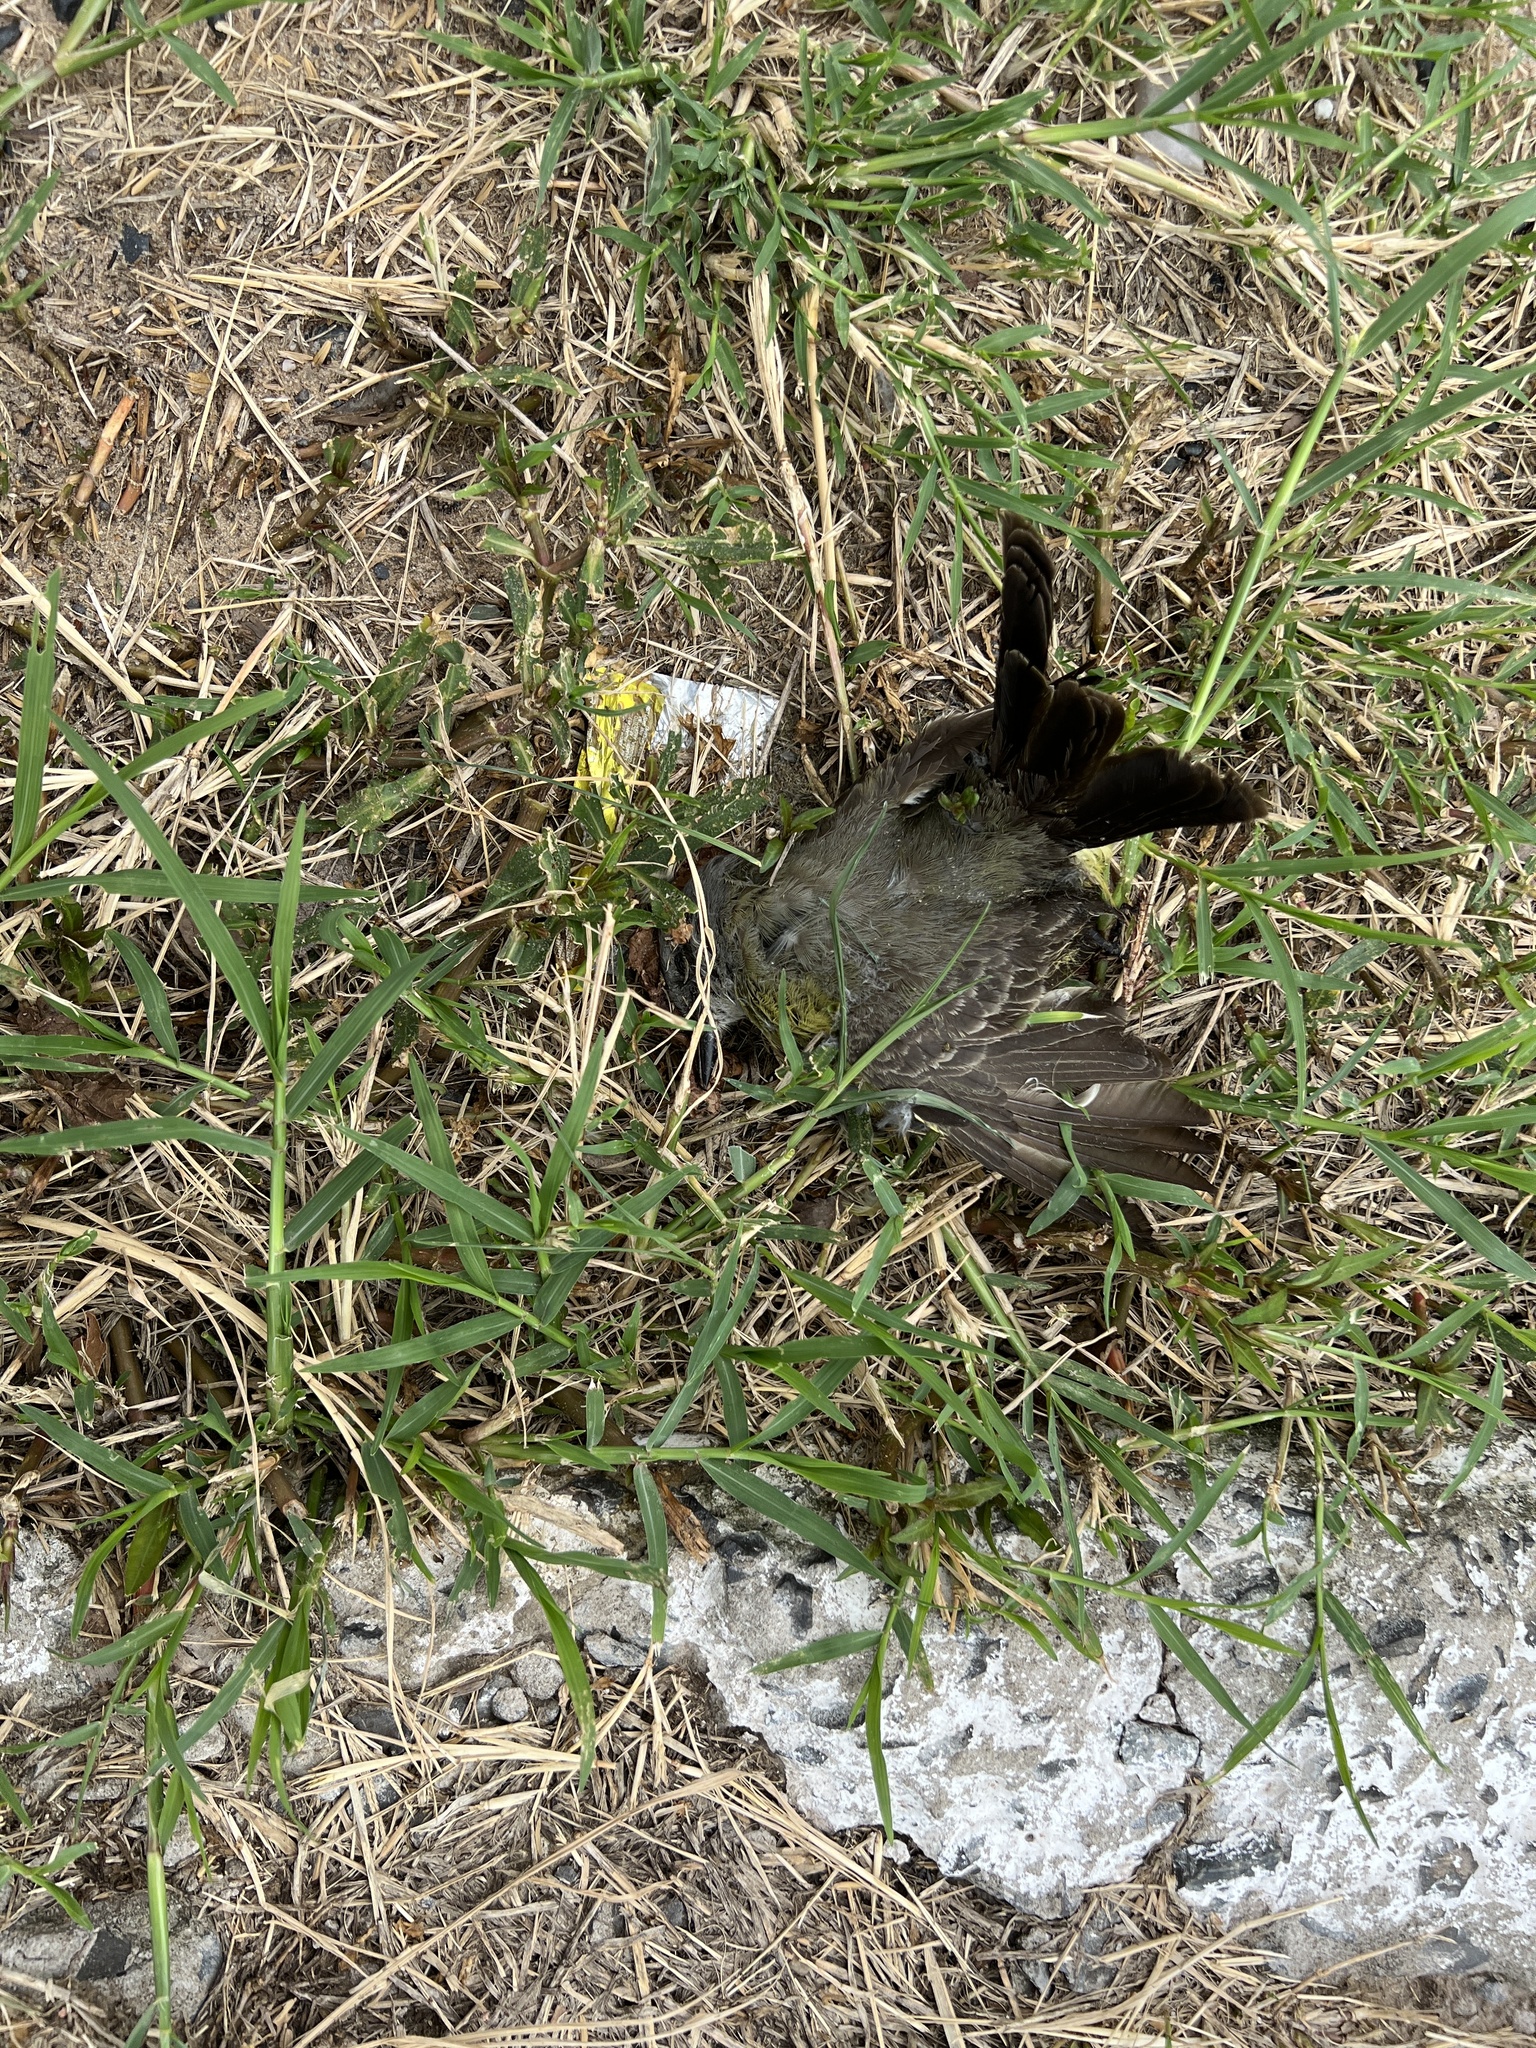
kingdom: Animalia
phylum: Chordata
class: Aves
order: Passeriformes
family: Tyrannidae
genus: Tyrannus
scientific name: Tyrannus melancholicus
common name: Tropical kingbird
